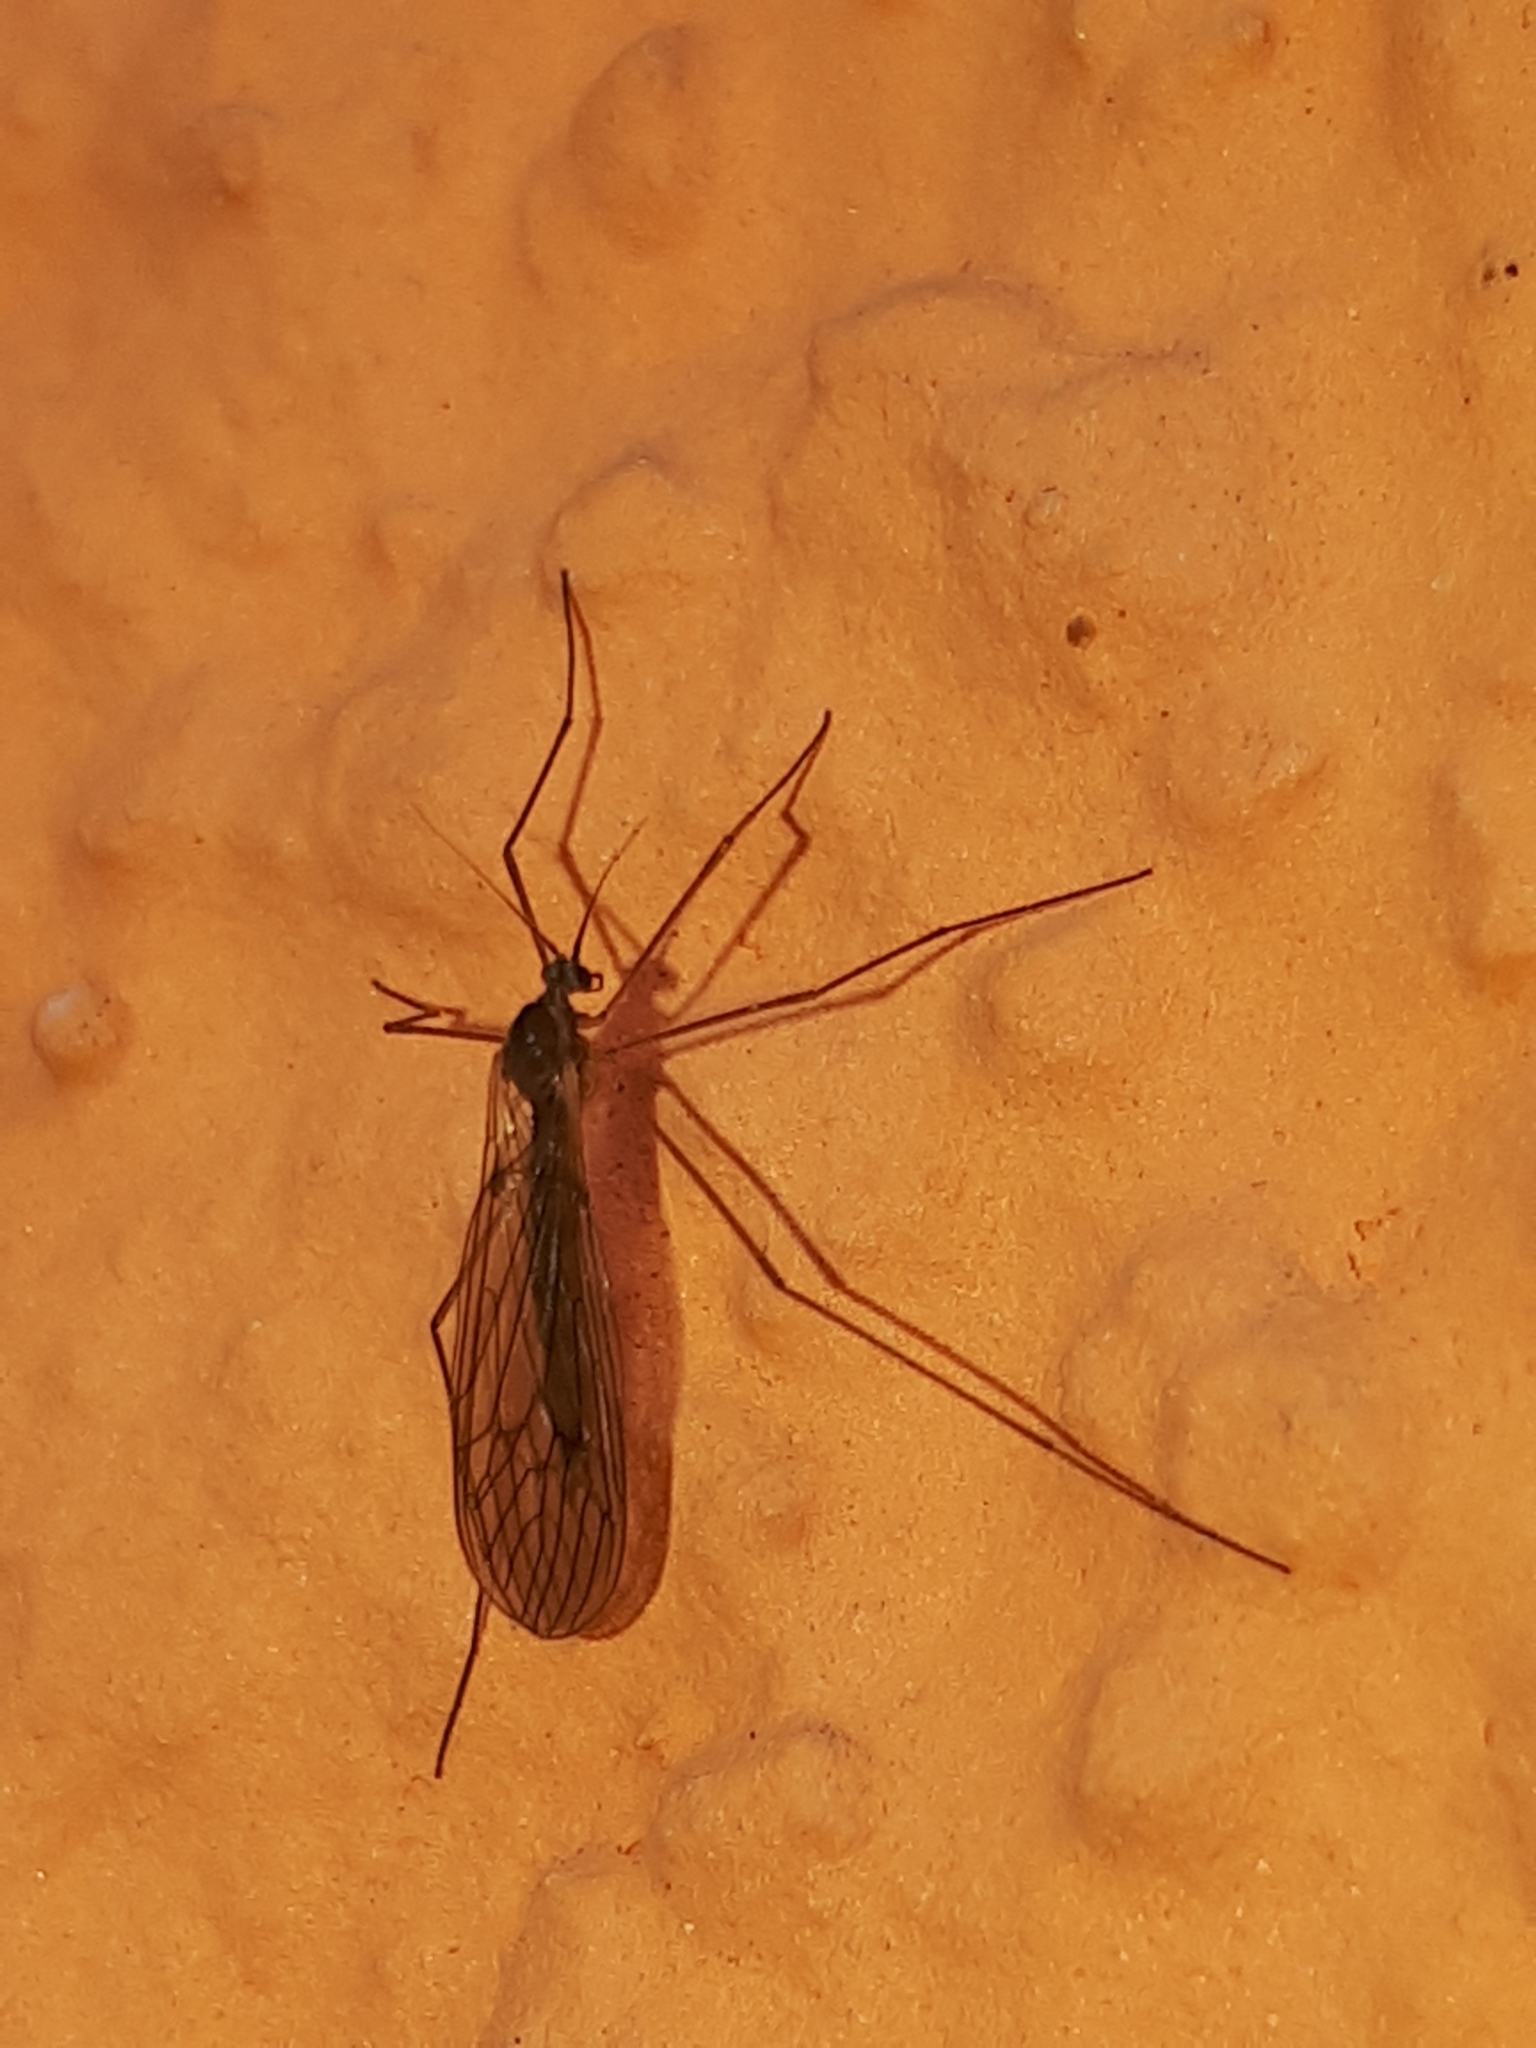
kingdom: Animalia
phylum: Arthropoda
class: Insecta
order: Diptera
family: Trichoceridae
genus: Trichocera
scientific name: Trichocera
